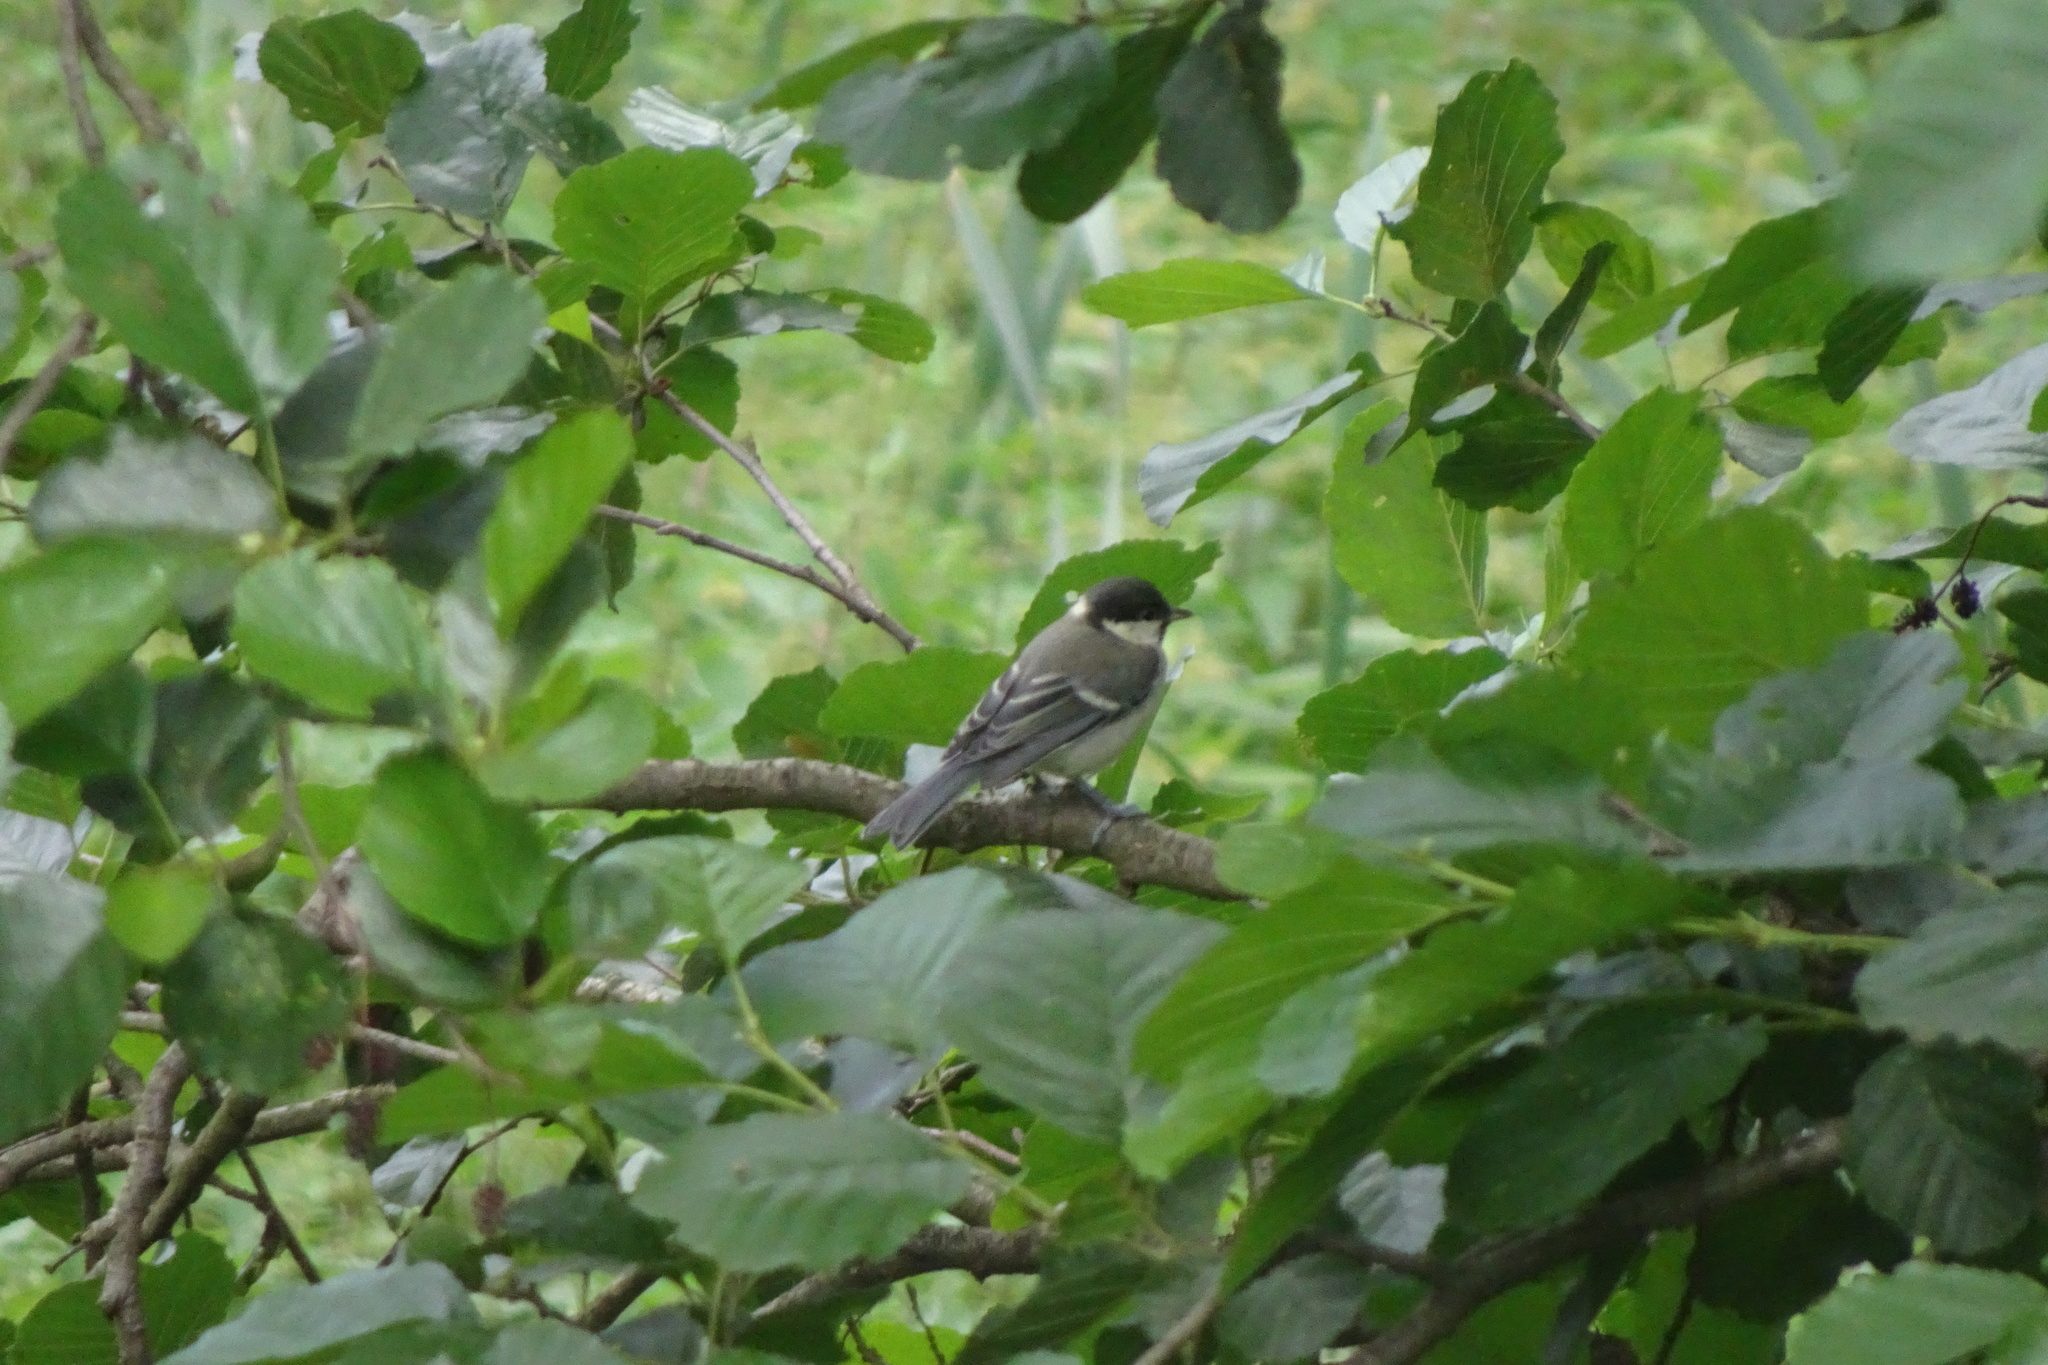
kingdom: Animalia
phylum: Chordata
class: Aves
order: Passeriformes
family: Paridae
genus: Parus
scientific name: Parus major
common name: Great tit
